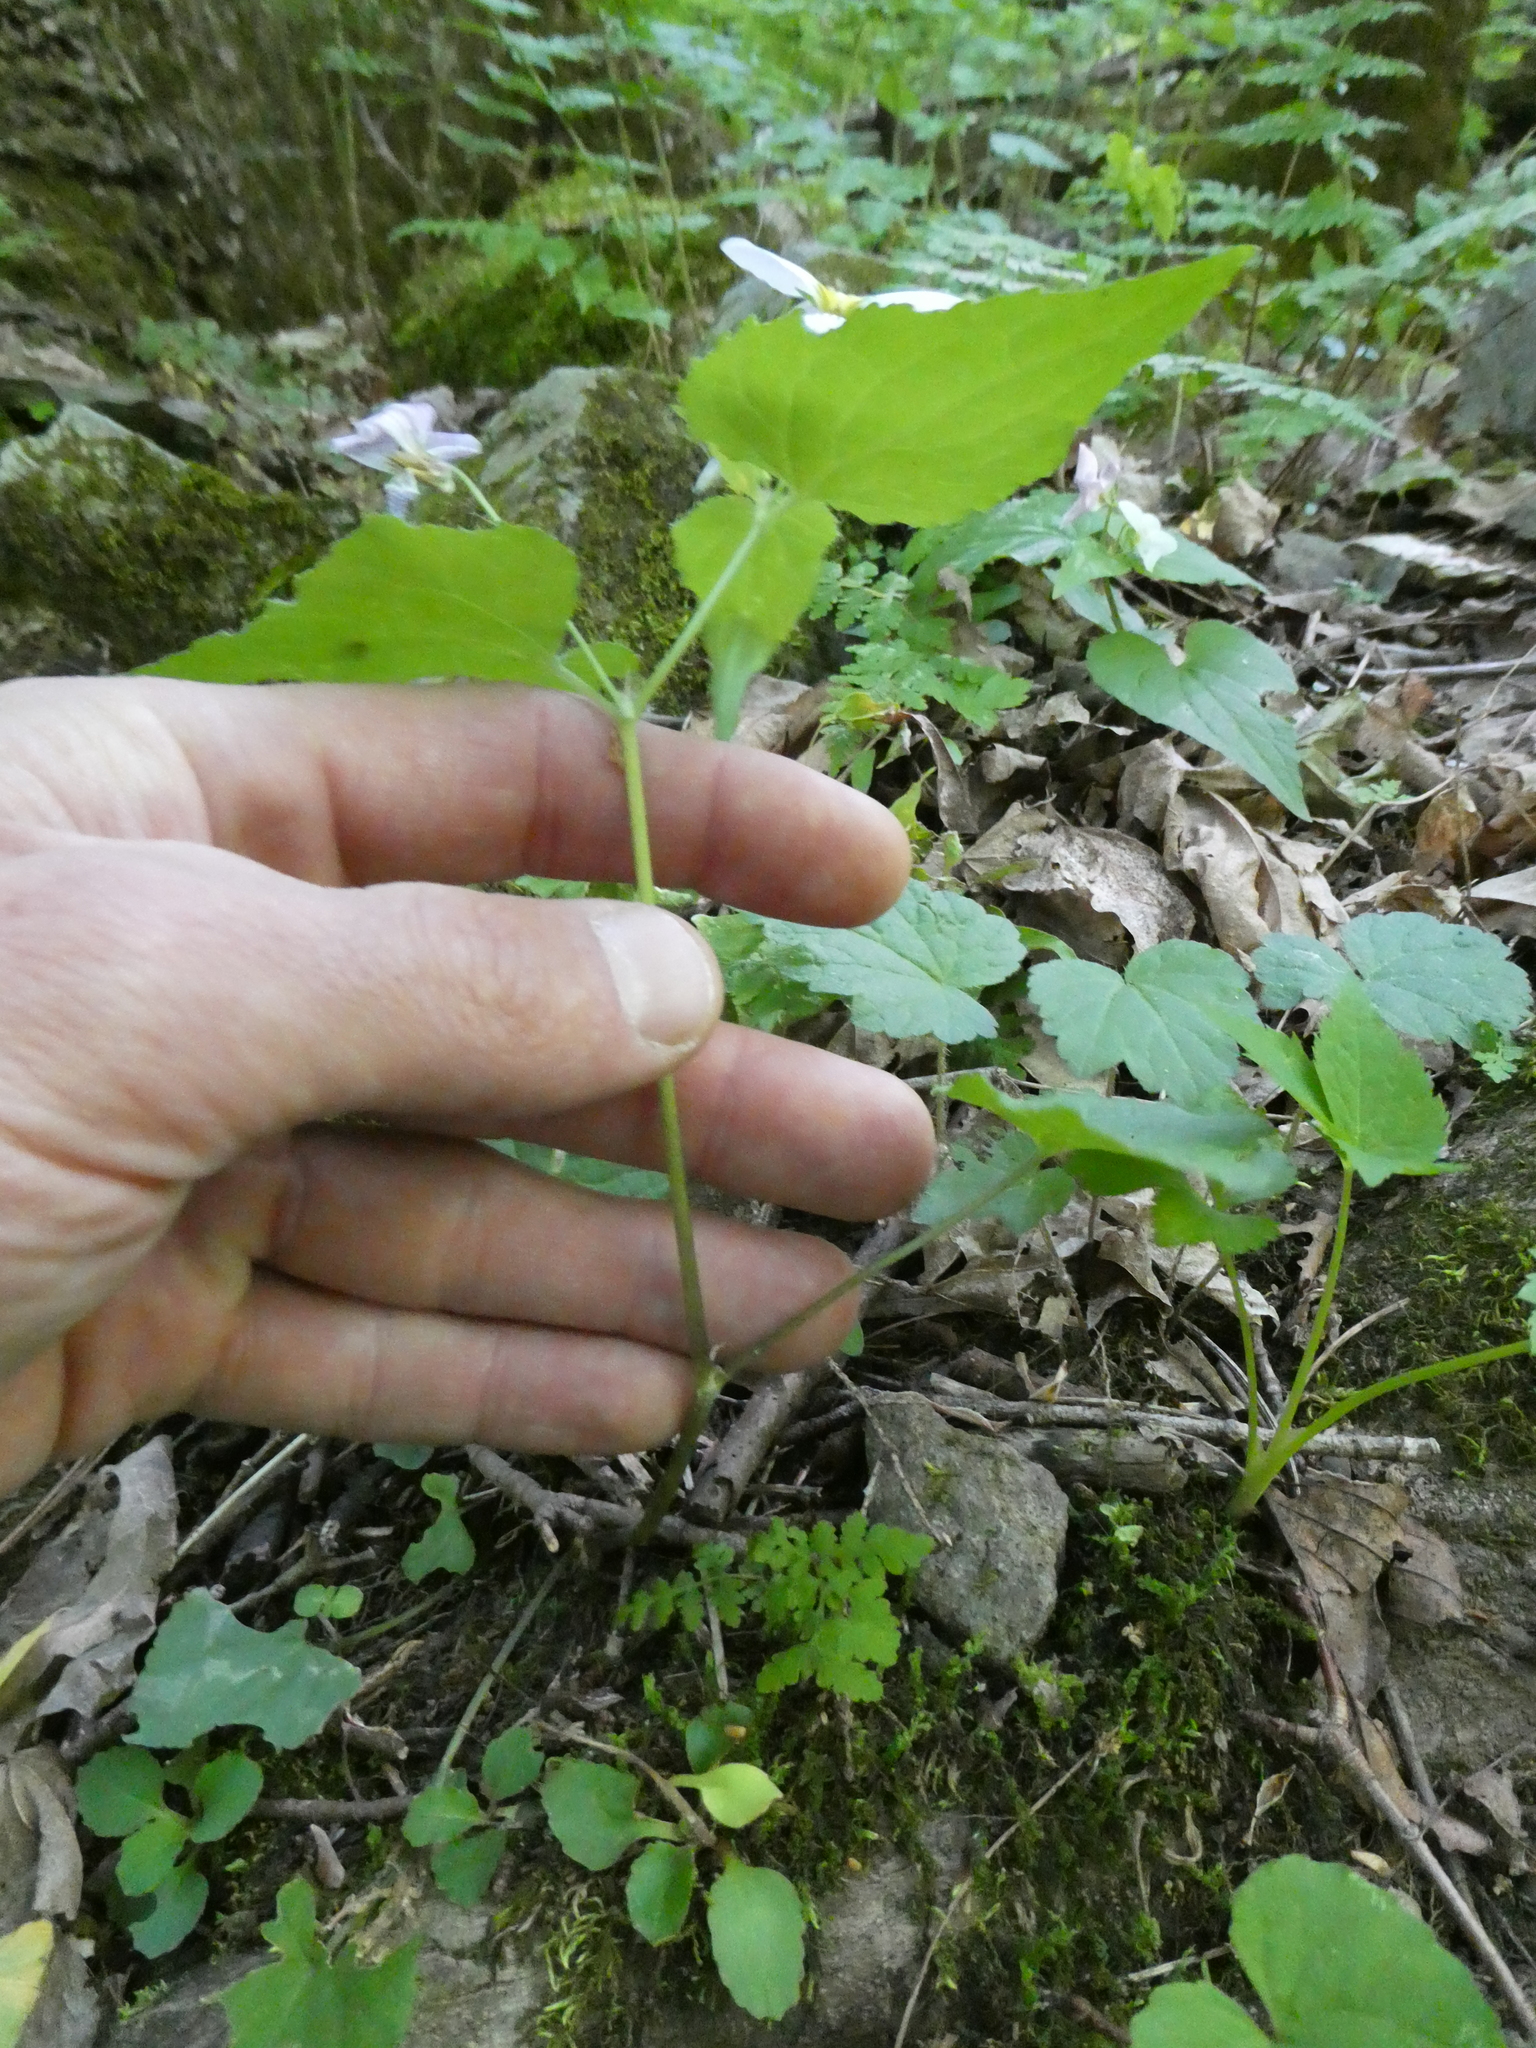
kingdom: Plantae
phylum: Tracheophyta
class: Magnoliopsida
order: Malpighiales
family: Violaceae
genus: Viola
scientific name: Viola canadensis
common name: Canada violet
